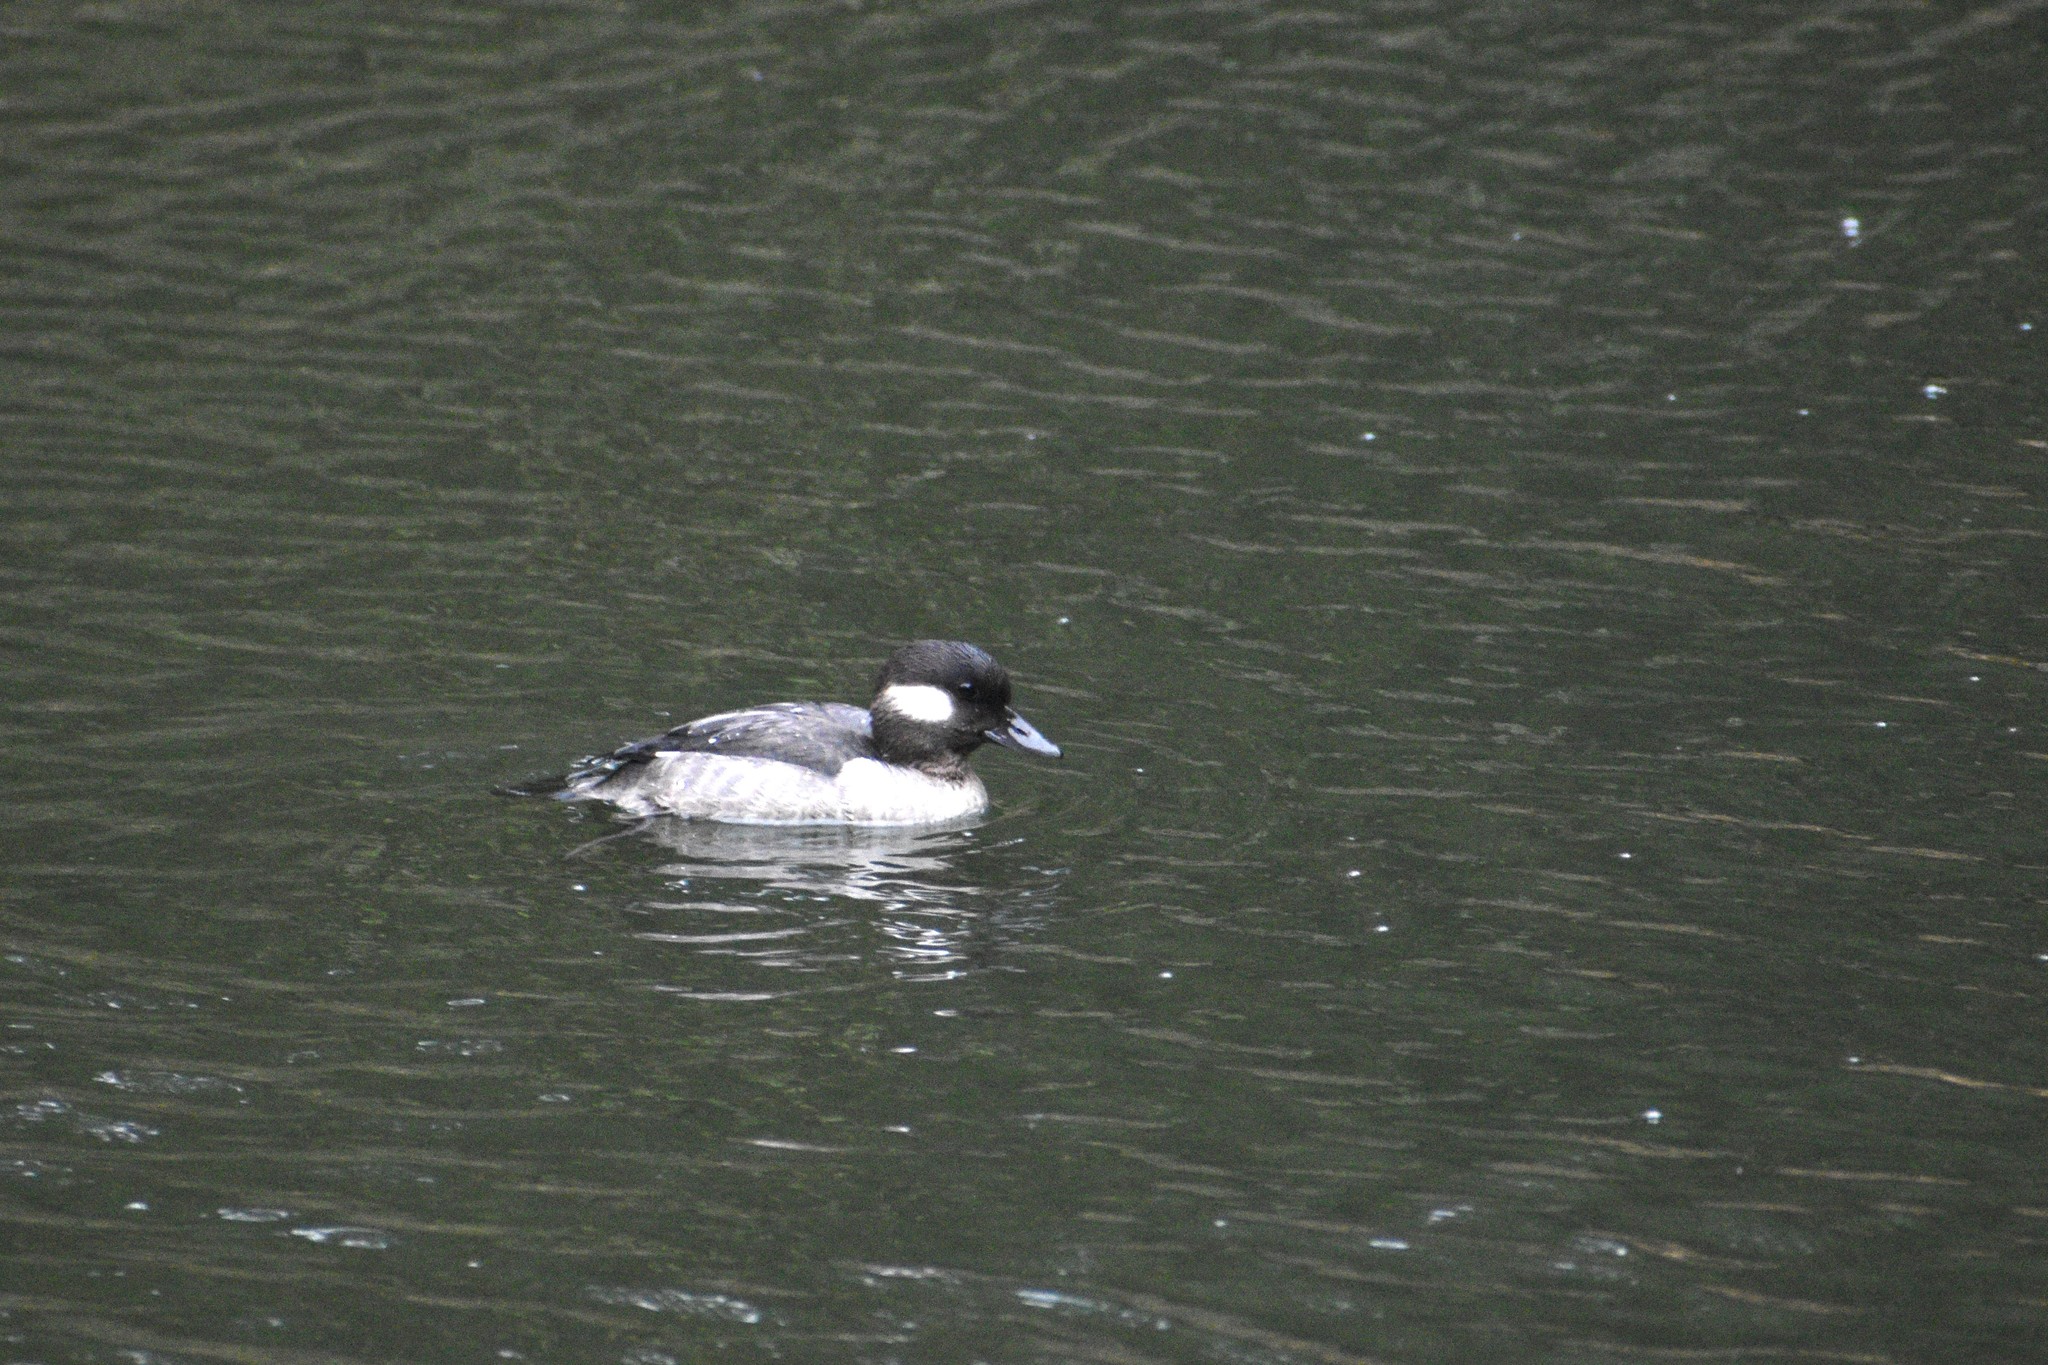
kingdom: Animalia
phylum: Chordata
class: Aves
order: Anseriformes
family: Anatidae
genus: Bucephala
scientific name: Bucephala albeola
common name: Bufflehead
